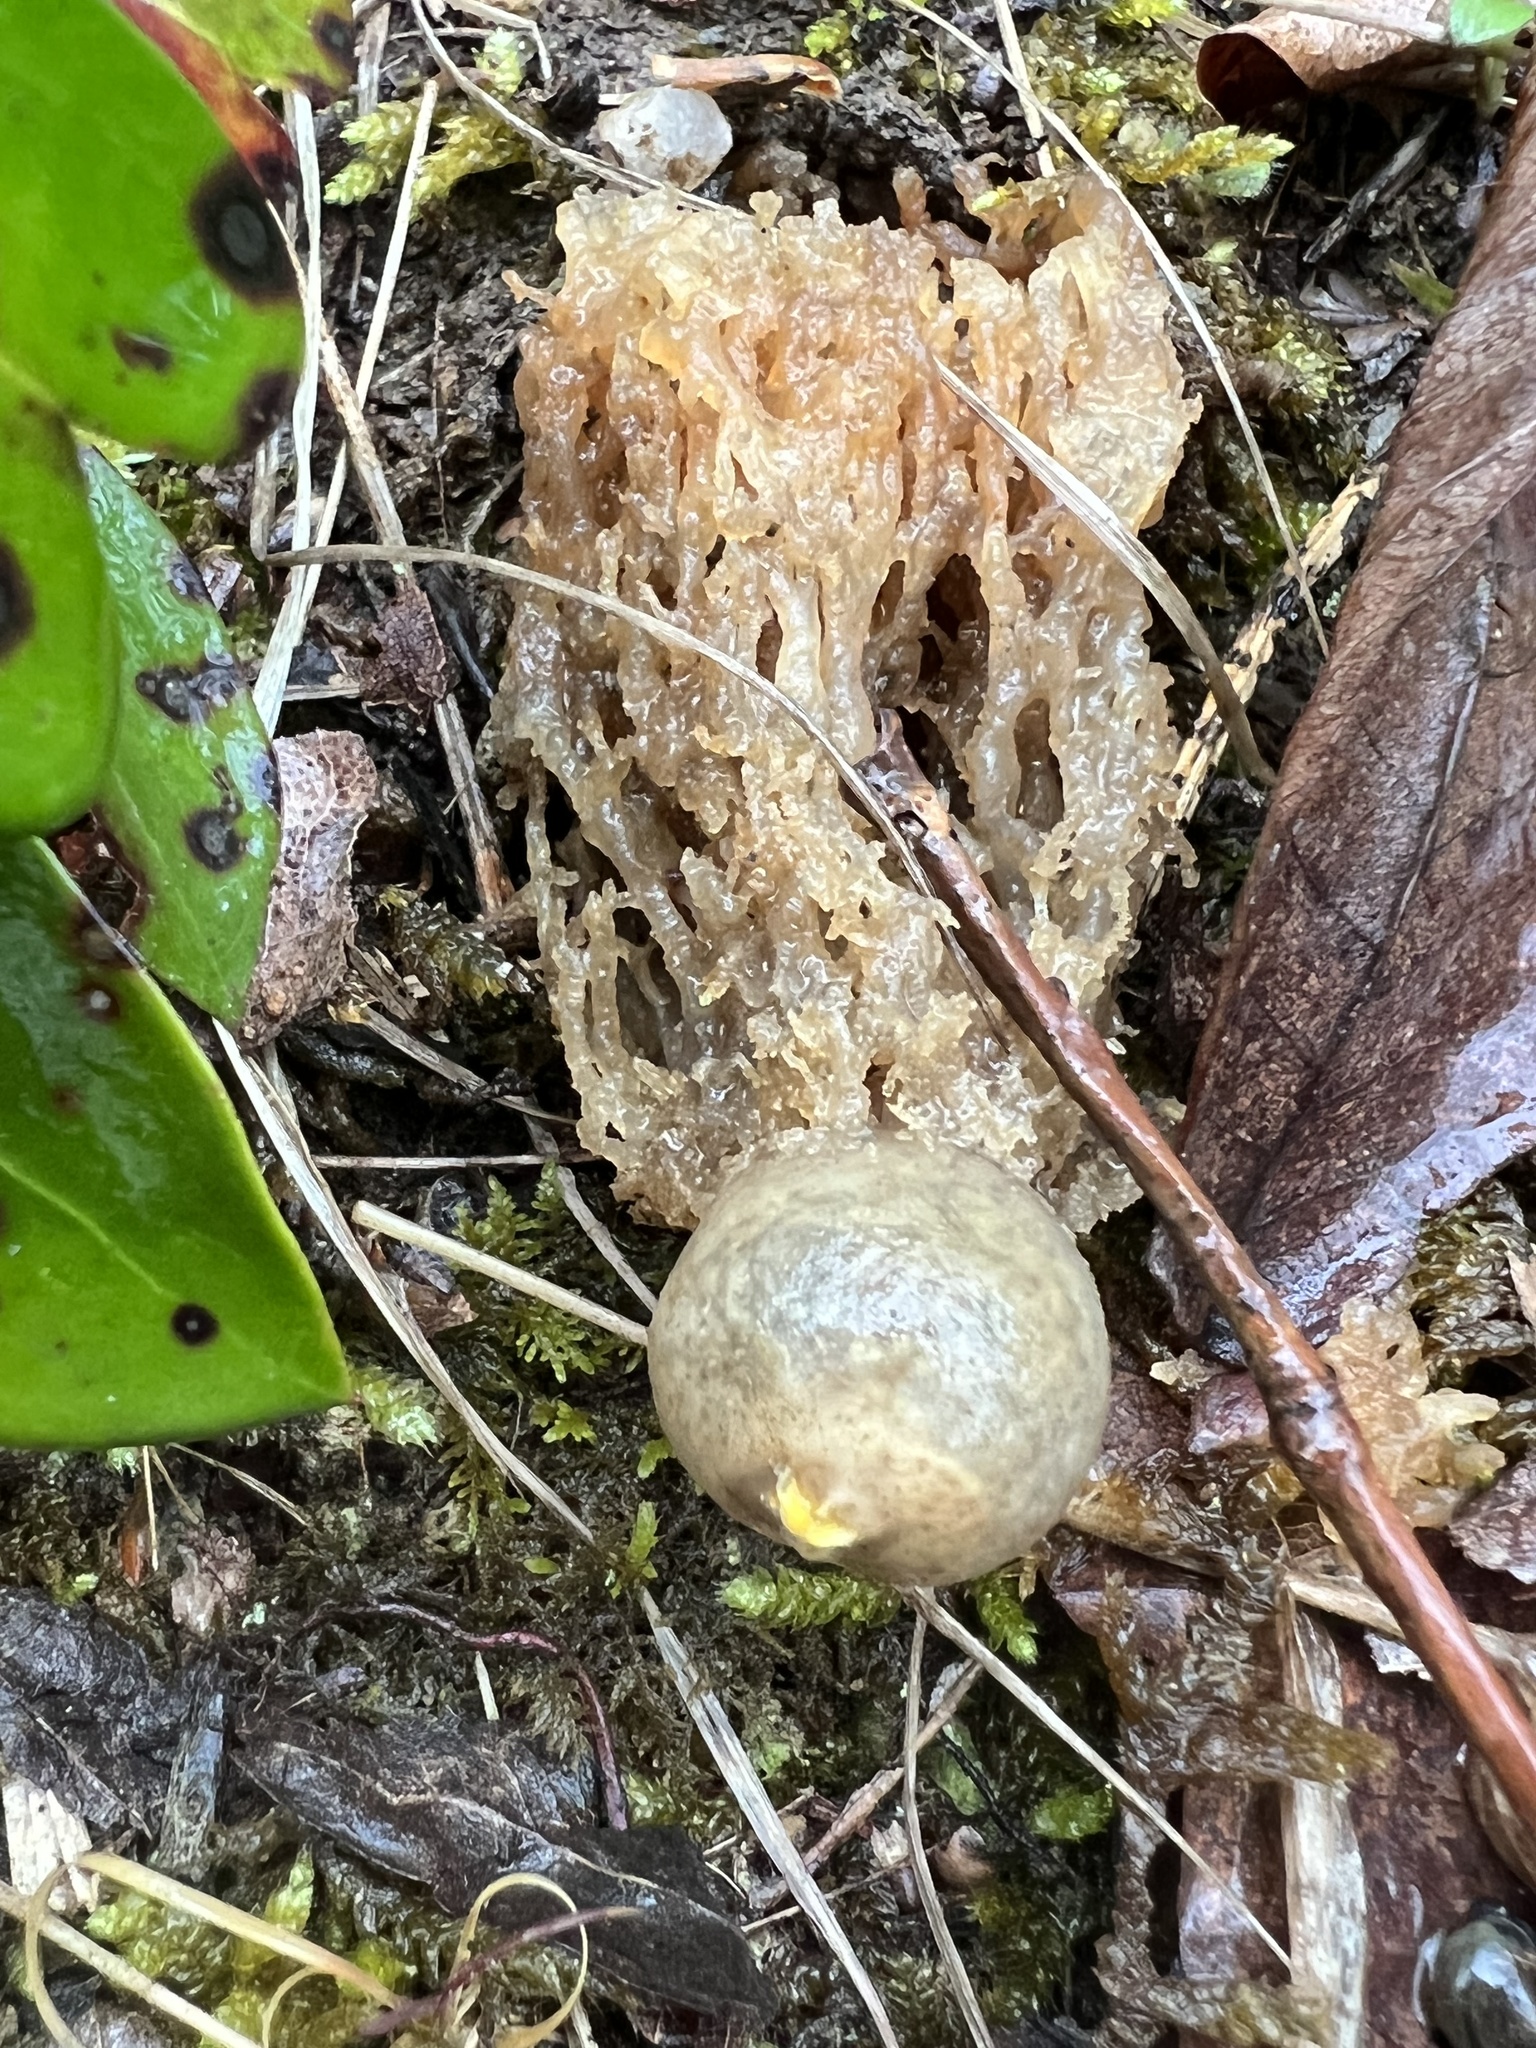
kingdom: Fungi
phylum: Basidiomycota
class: Agaricomycetes
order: Boletales
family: Calostomataceae
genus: Calostoma
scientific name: Calostoma ravenelii
